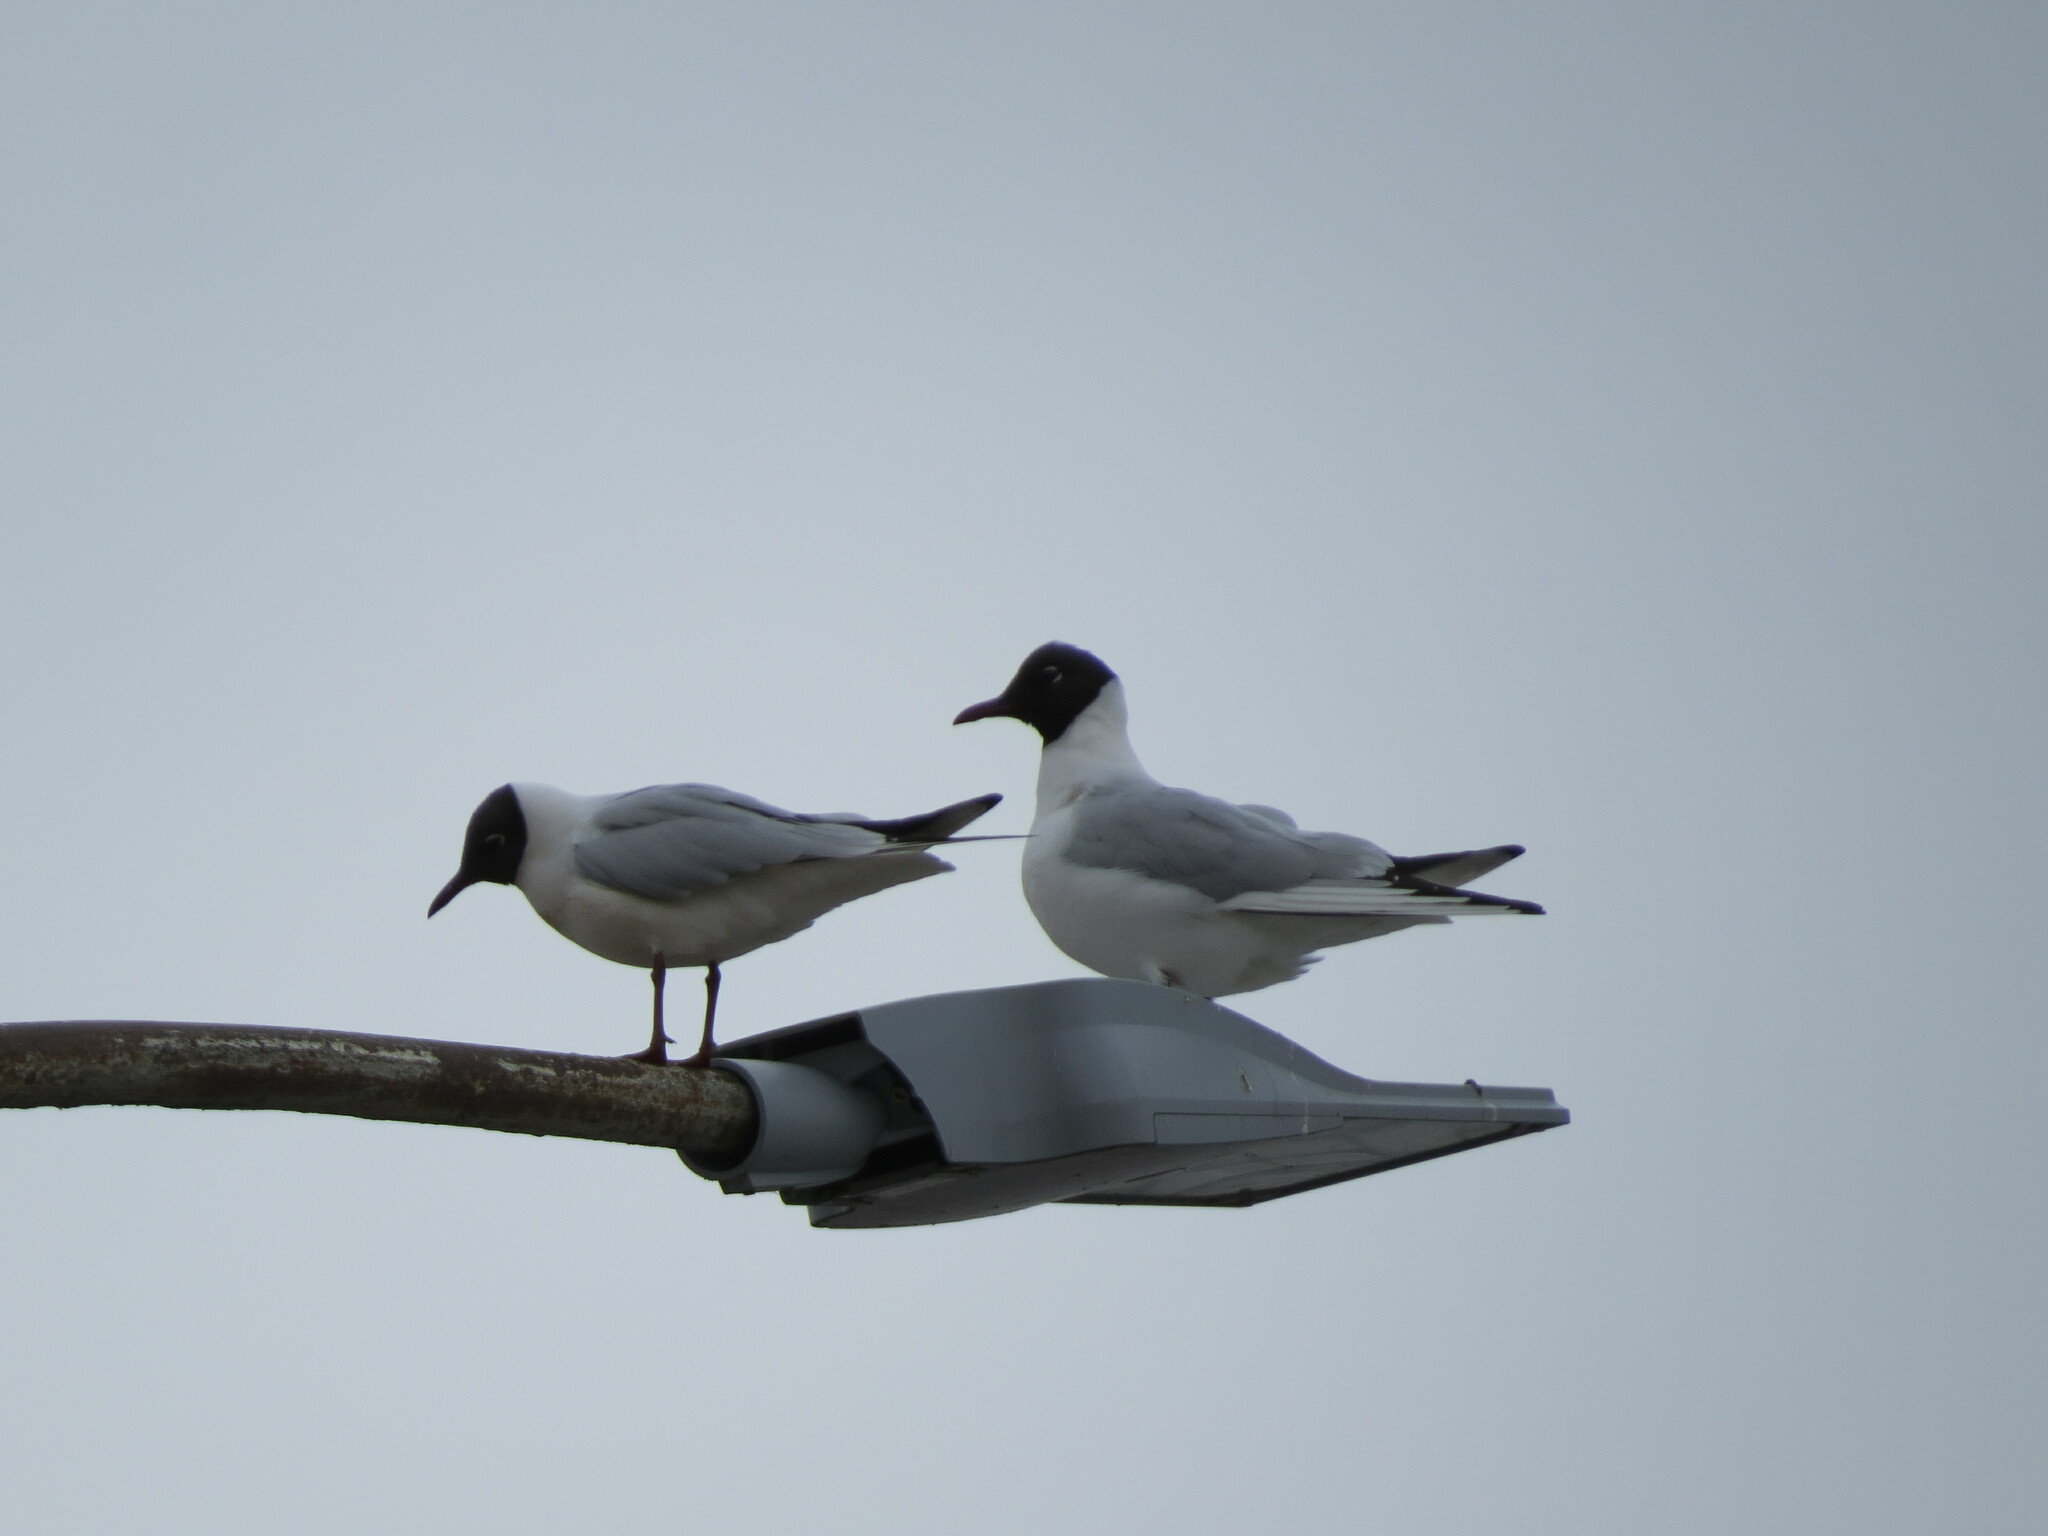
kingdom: Animalia
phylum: Chordata
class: Aves
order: Charadriiformes
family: Laridae
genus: Chroicocephalus
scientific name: Chroicocephalus ridibundus
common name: Black-headed gull
